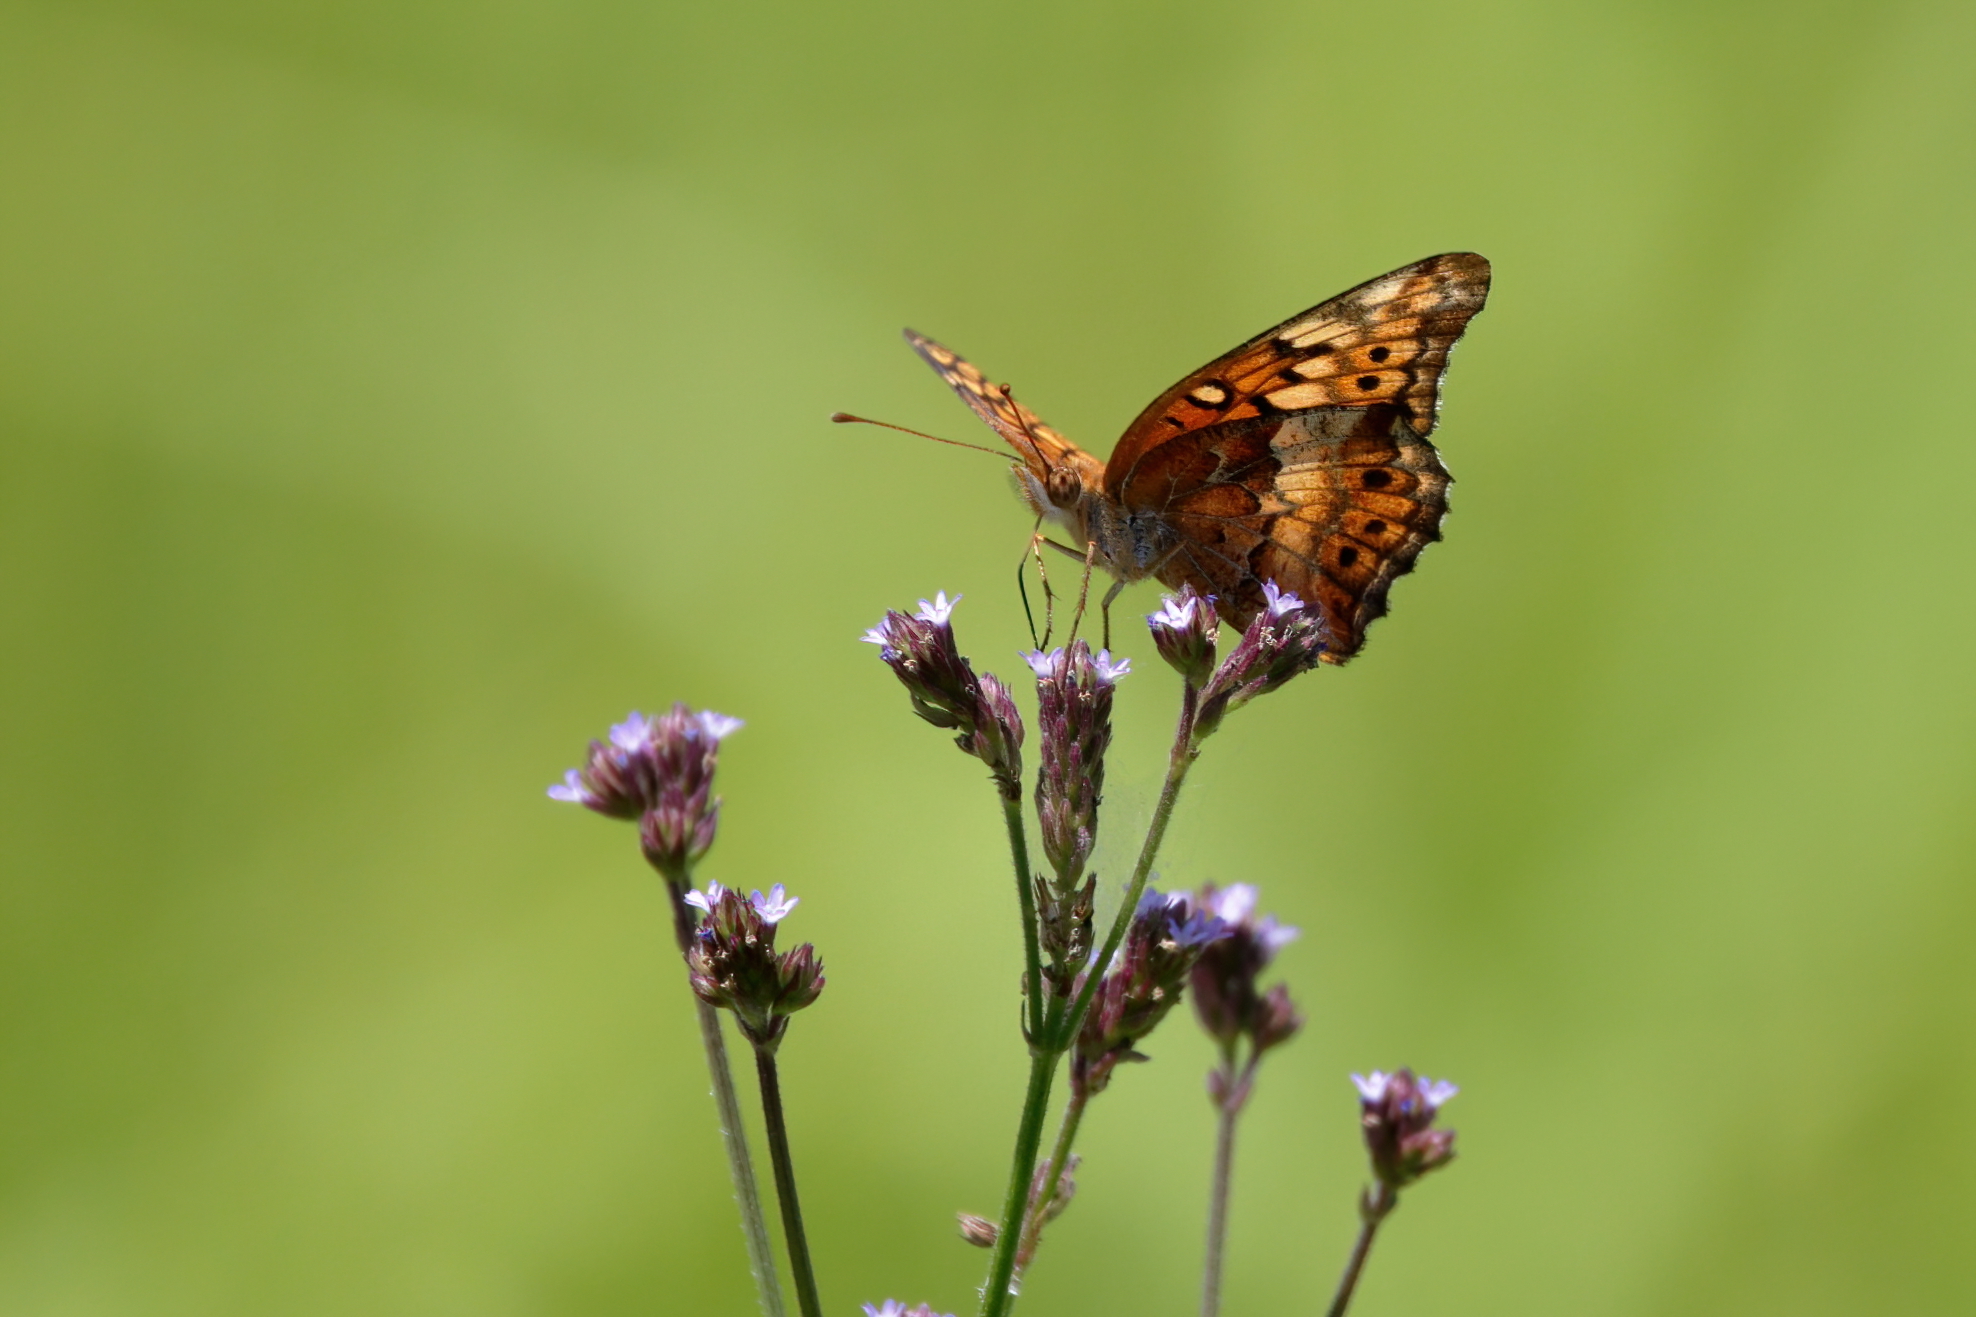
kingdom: Animalia
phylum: Arthropoda
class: Insecta
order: Lepidoptera
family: Nymphalidae
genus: Euptoieta
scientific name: Euptoieta claudia
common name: Variegated fritillary
